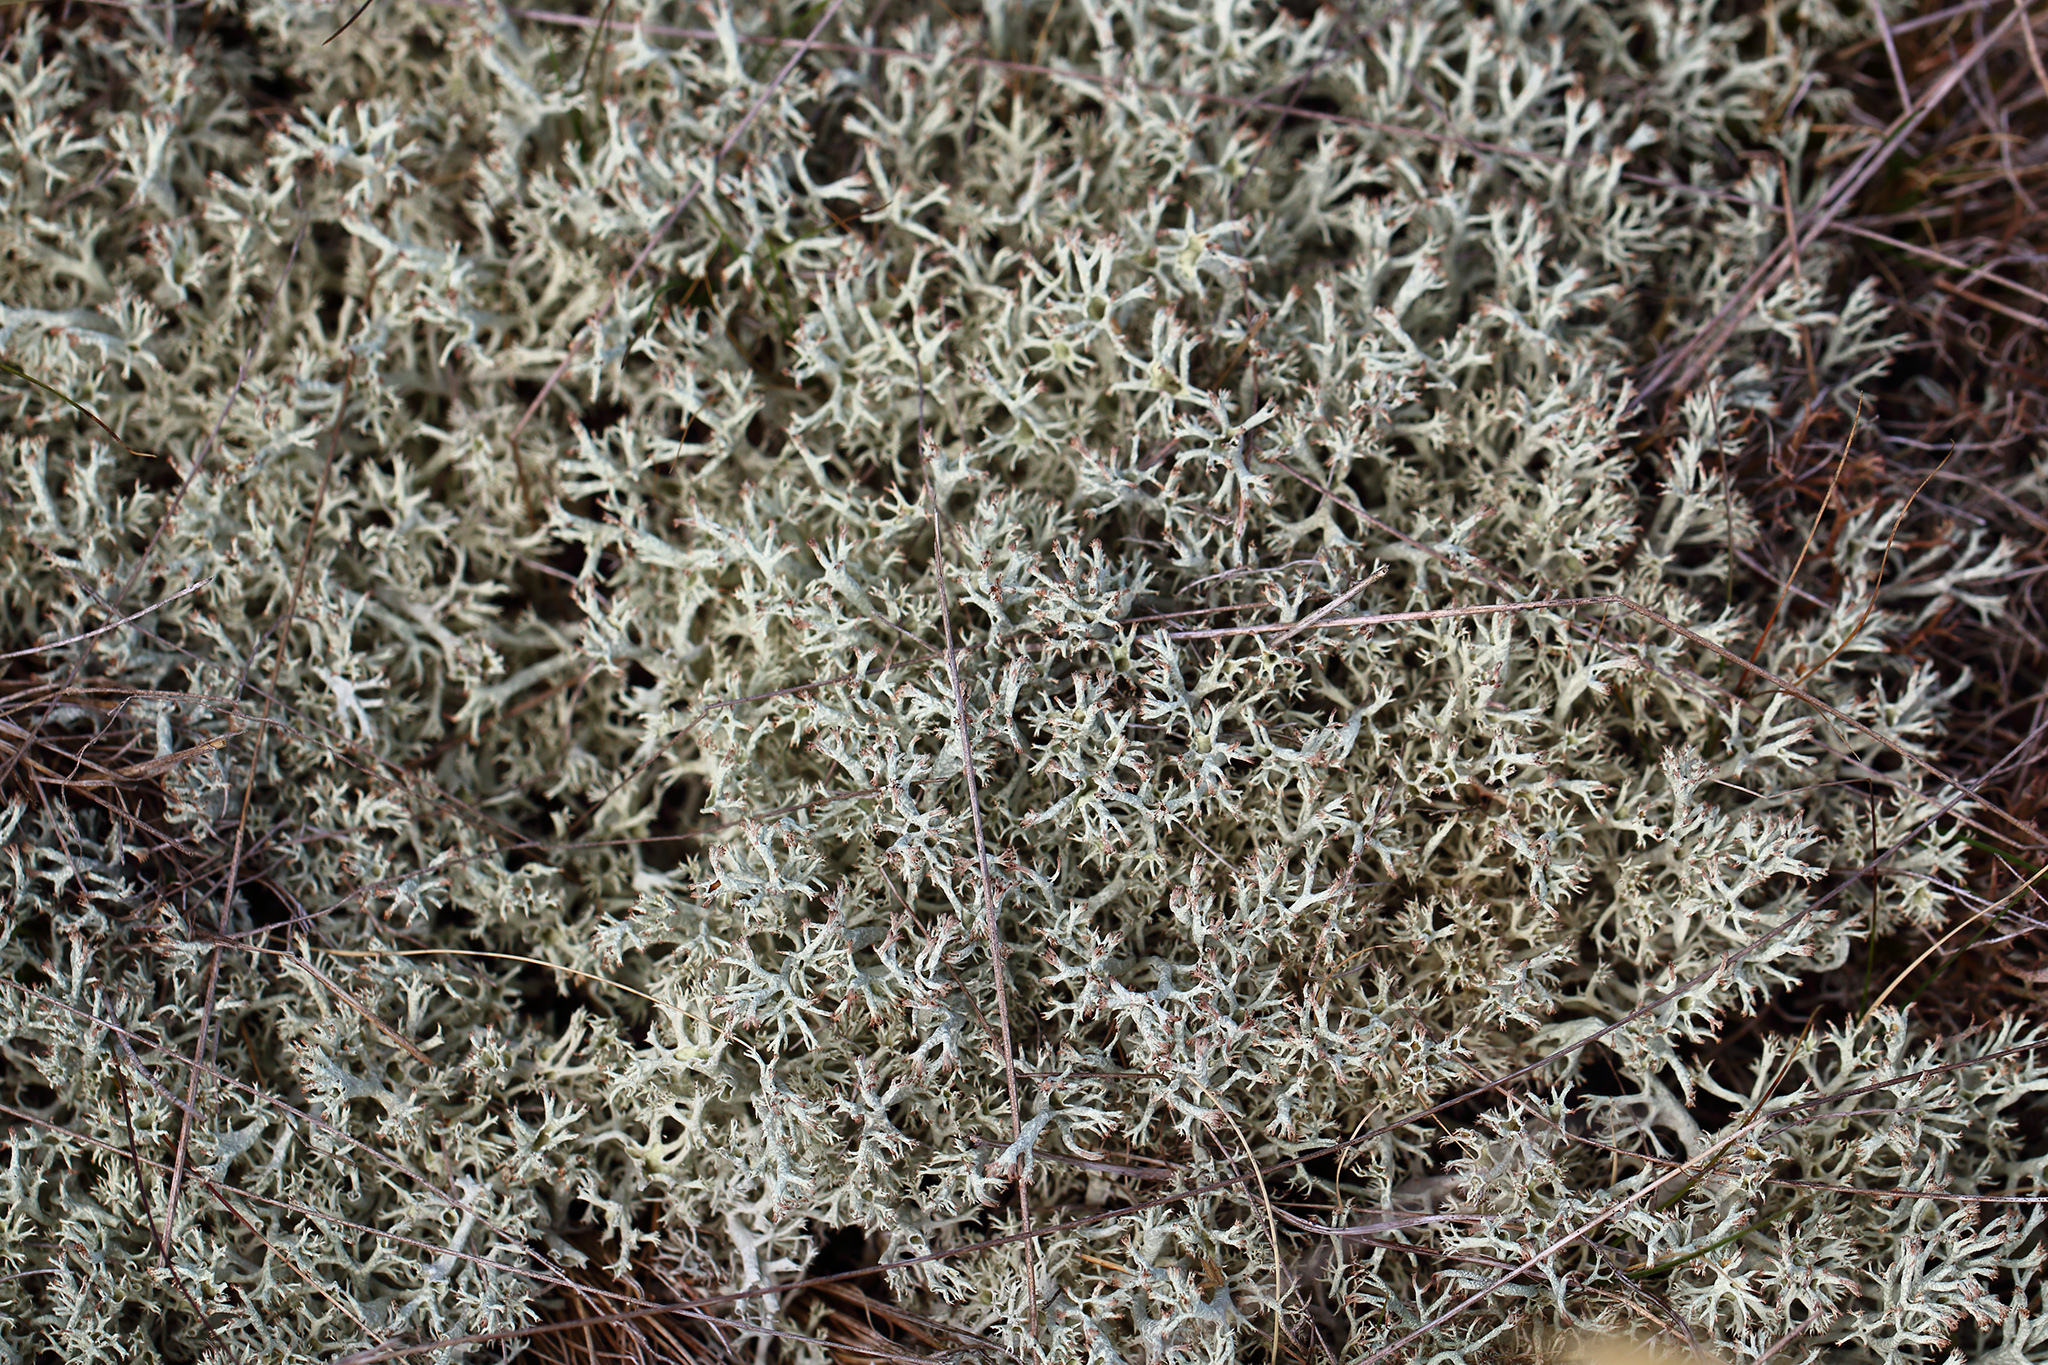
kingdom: Fungi
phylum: Ascomycota
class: Lecanoromycetes
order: Lecanorales
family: Cladoniaceae
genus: Cladonia
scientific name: Cladonia portentosa
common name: Reindeer lichen
